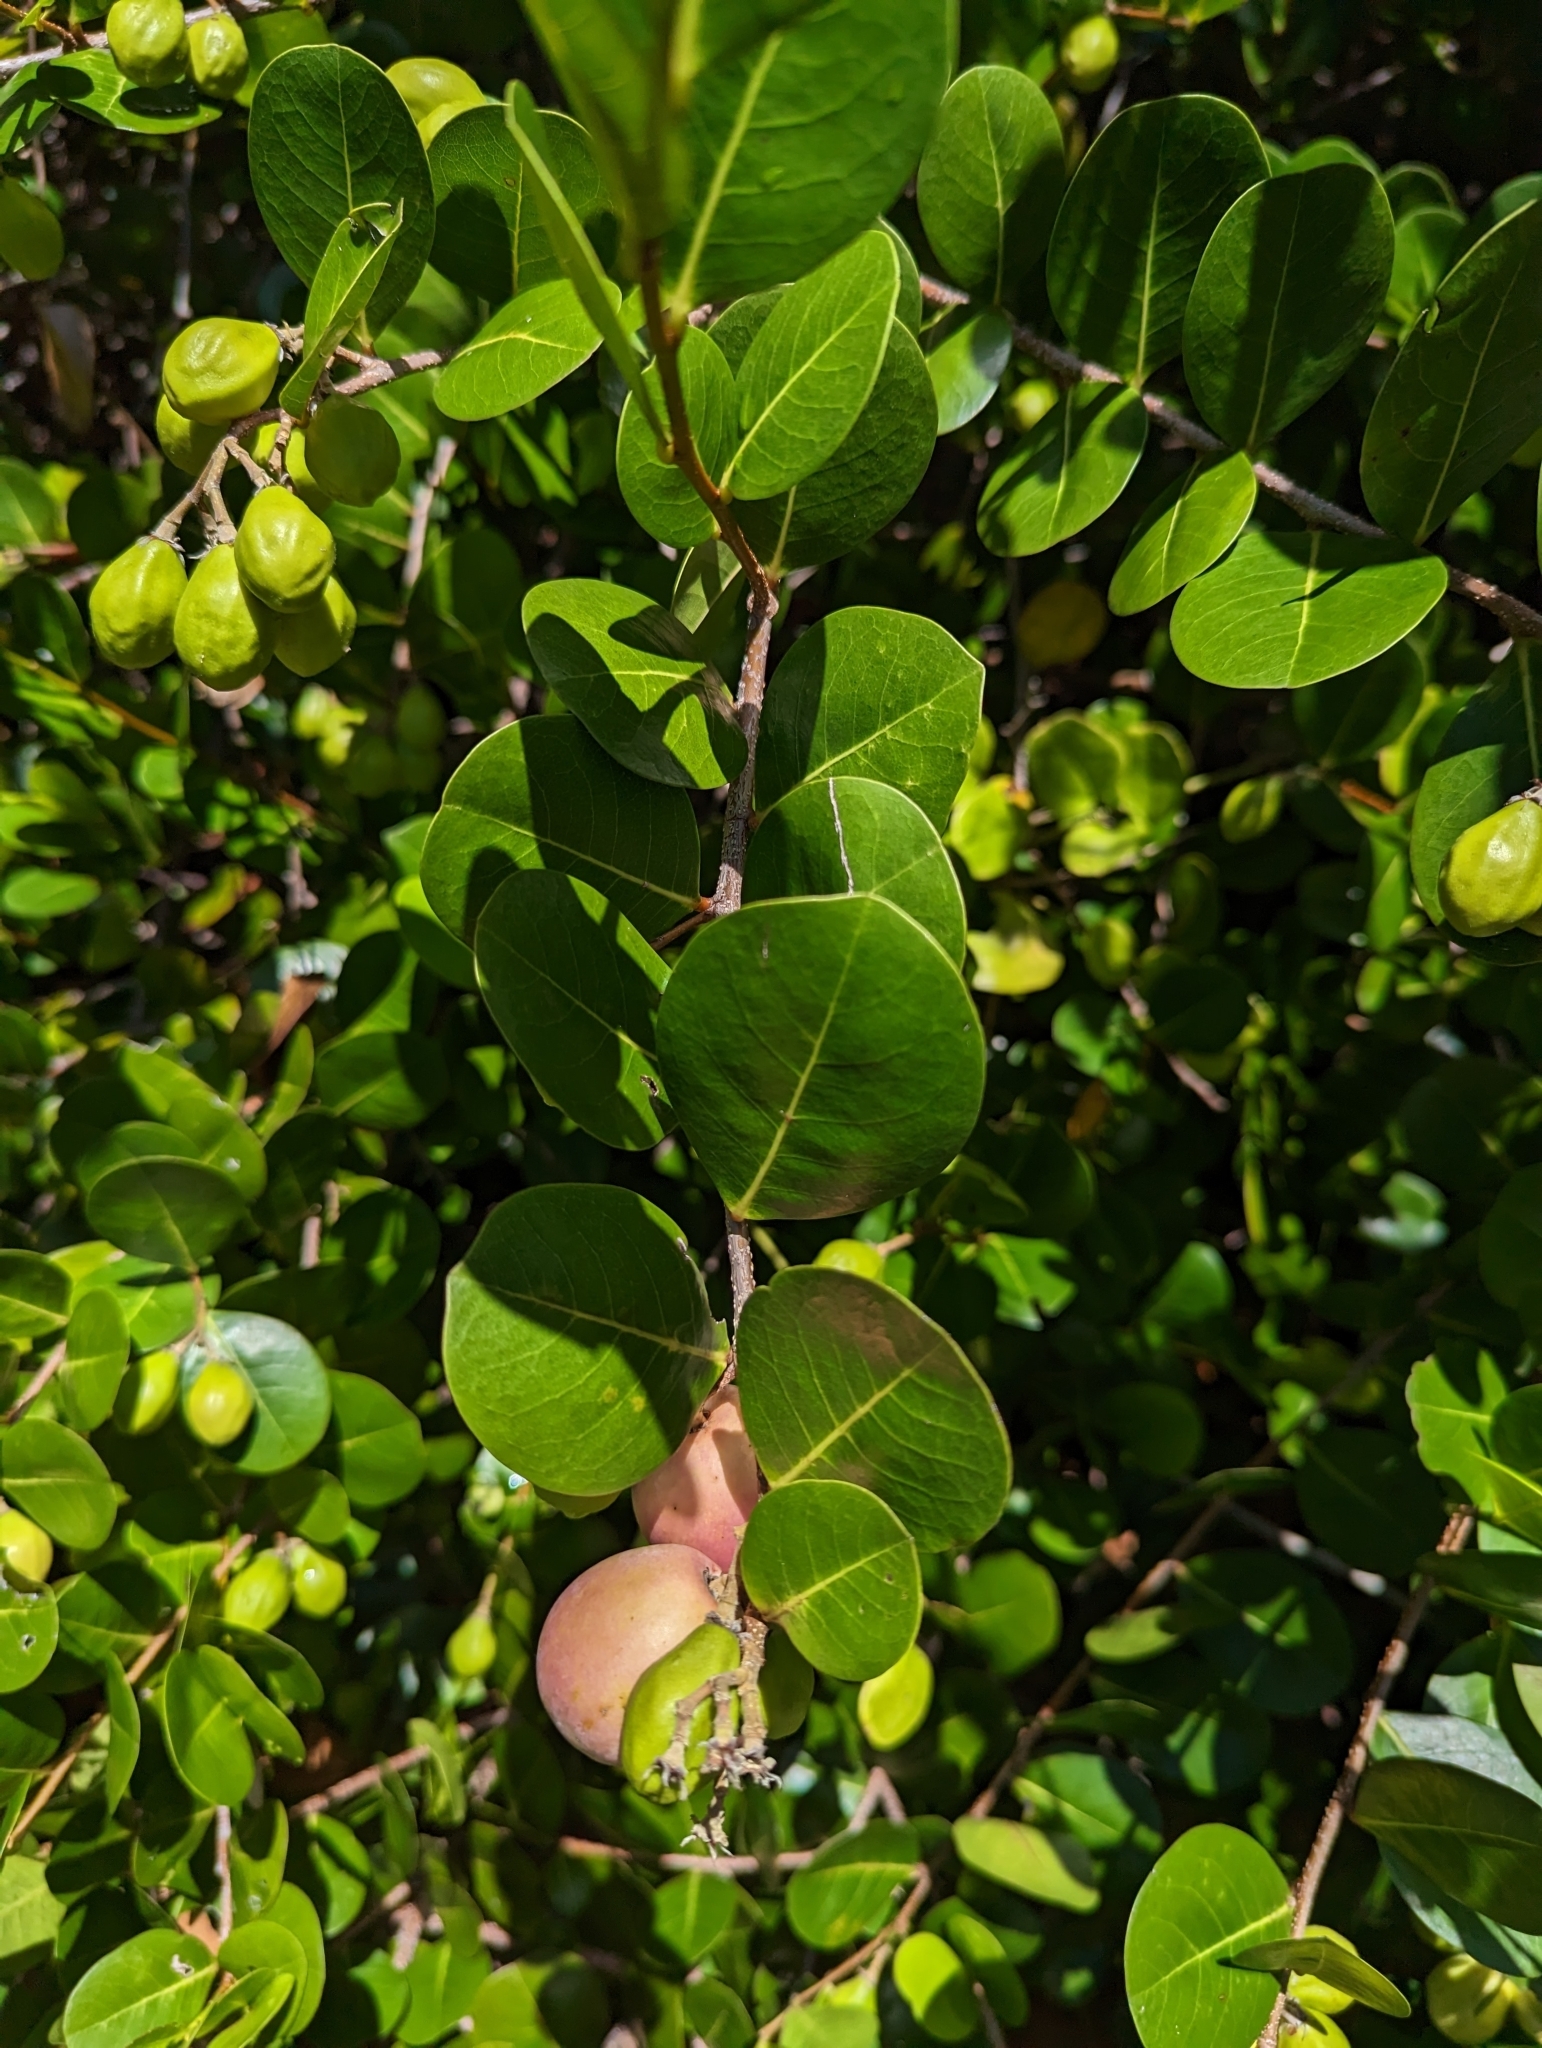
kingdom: Plantae
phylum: Tracheophyta
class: Magnoliopsida
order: Malpighiales
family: Chrysobalanaceae
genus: Chrysobalanus
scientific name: Chrysobalanus icaco
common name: Coco plum
